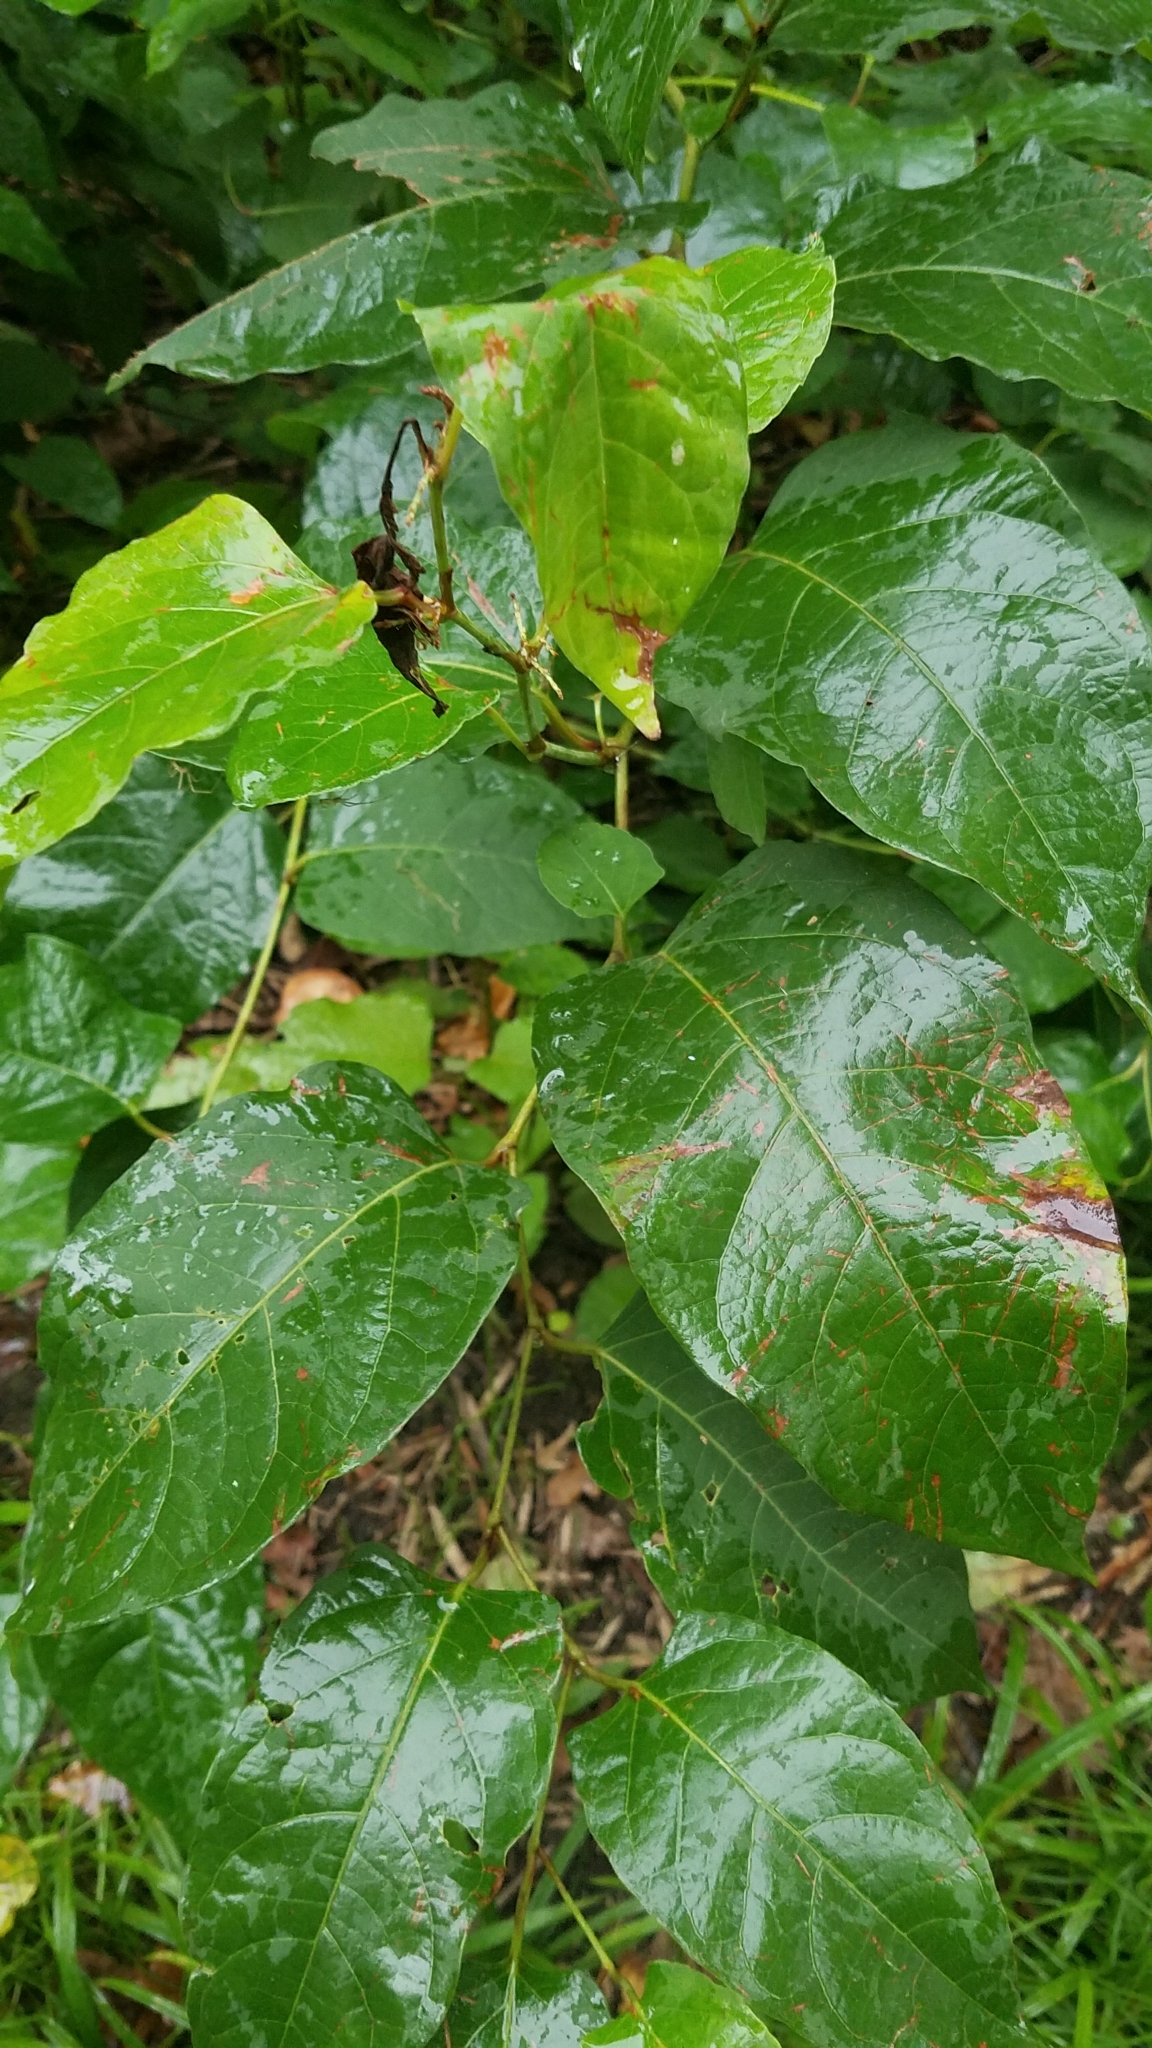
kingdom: Plantae
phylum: Tracheophyta
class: Magnoliopsida
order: Caryophyllales
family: Polygonaceae
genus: Reynoutria
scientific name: Reynoutria japonica
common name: Japanese knotweed
